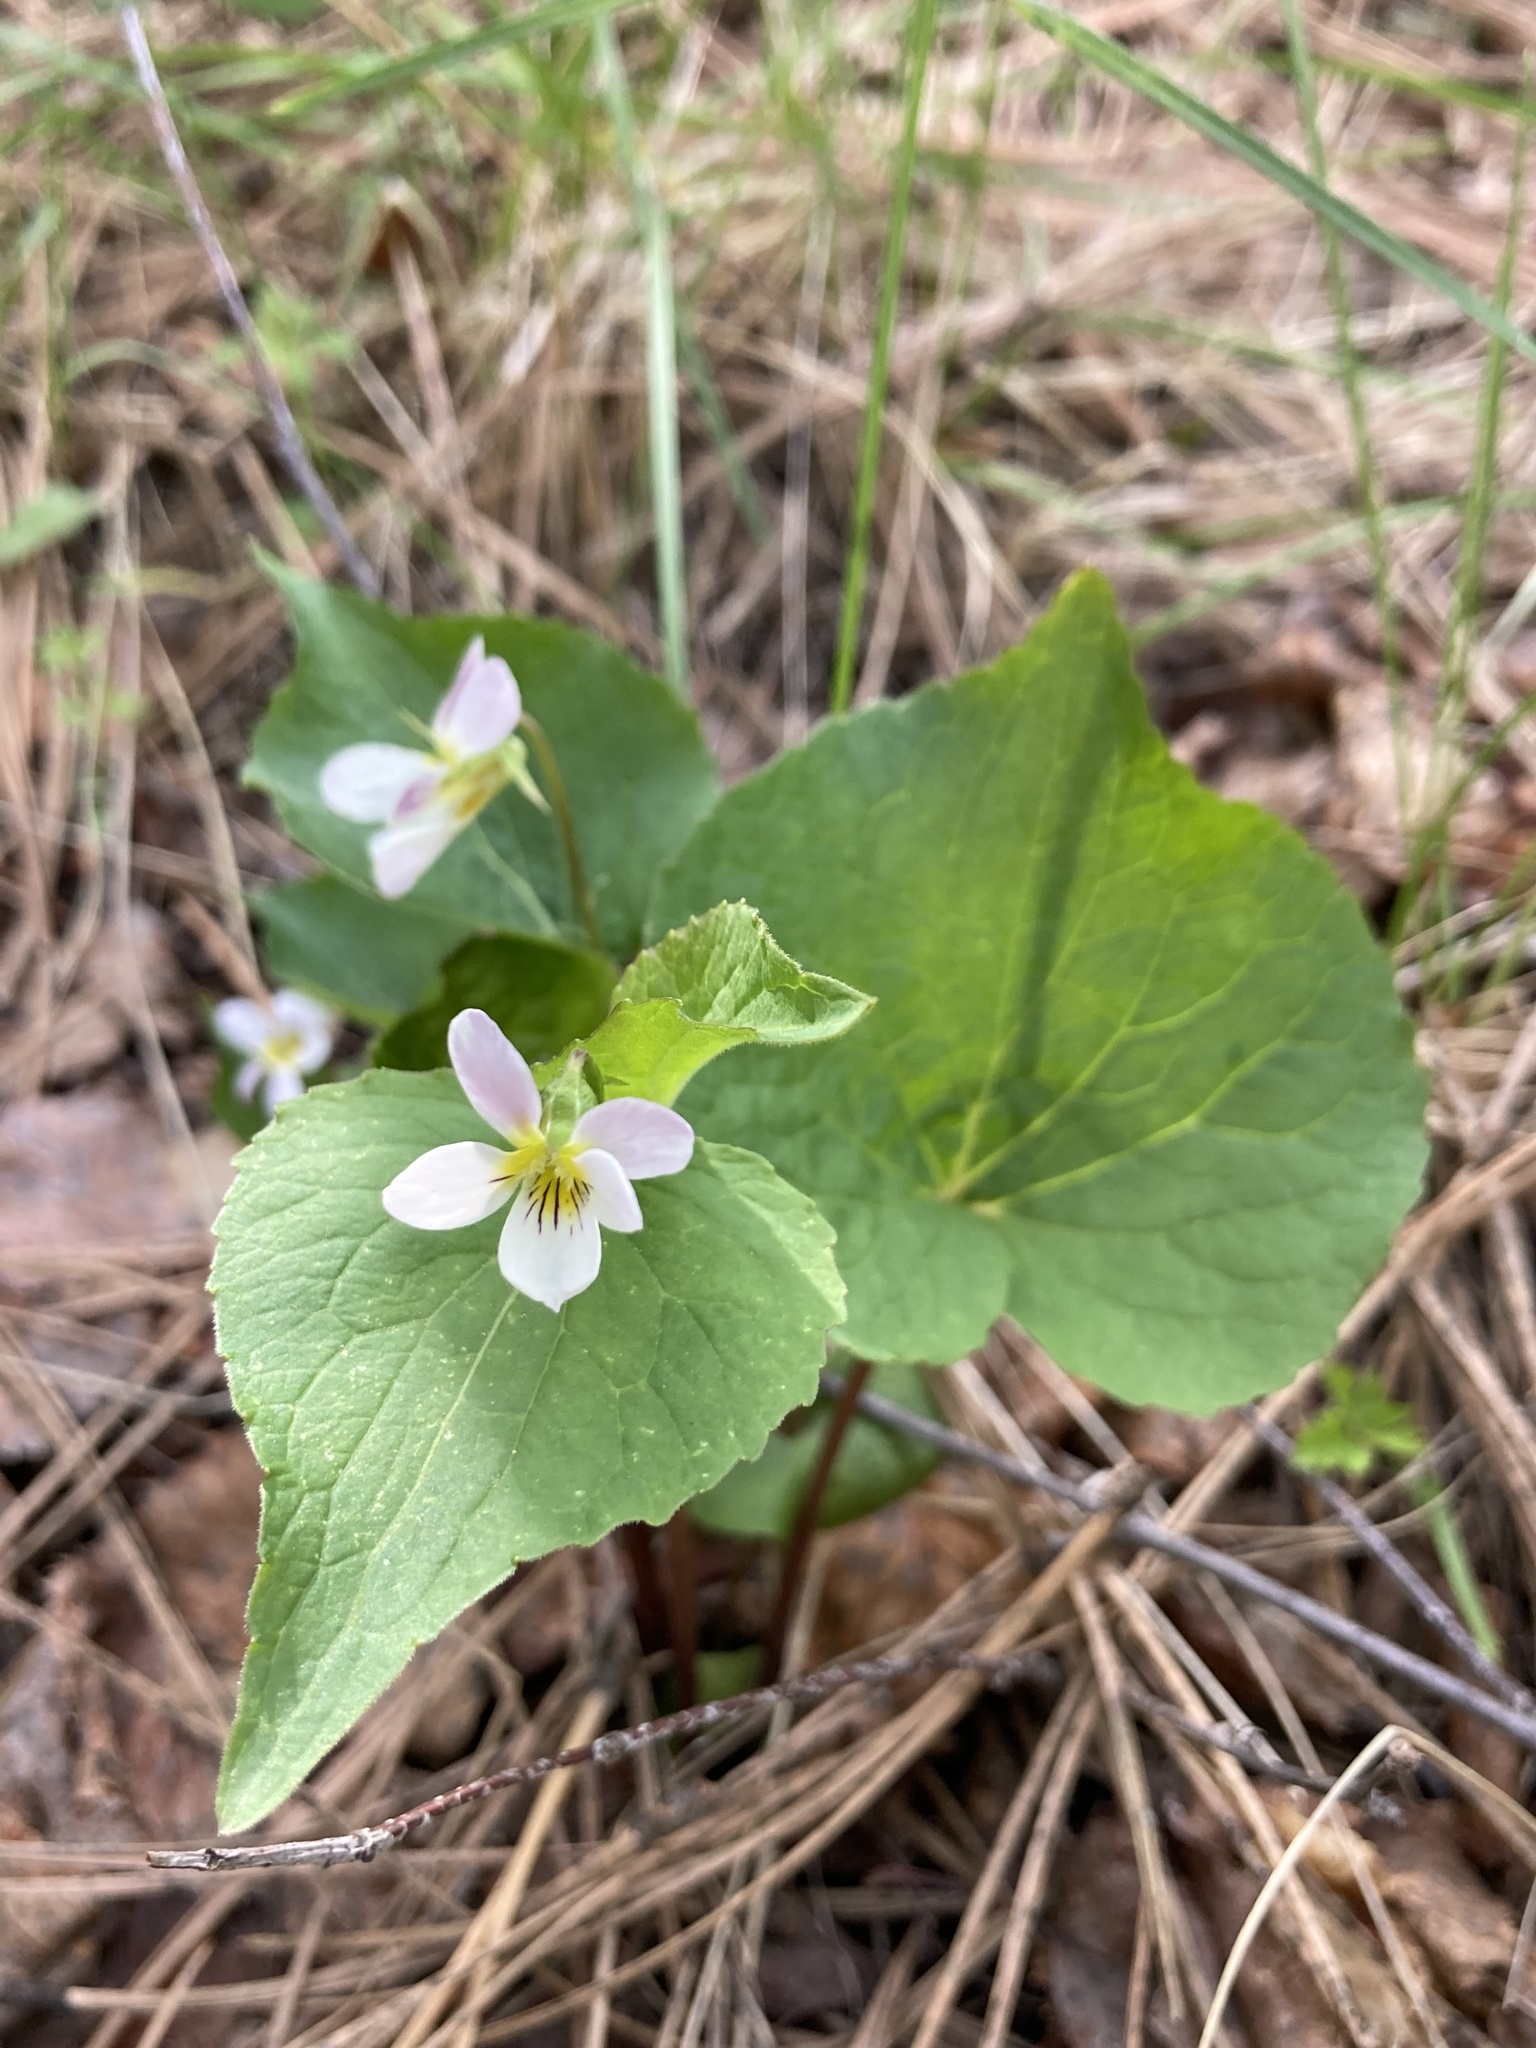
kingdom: Plantae
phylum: Tracheophyta
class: Magnoliopsida
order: Malpighiales
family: Violaceae
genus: Viola
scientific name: Viola canadensis
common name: Canada violet
